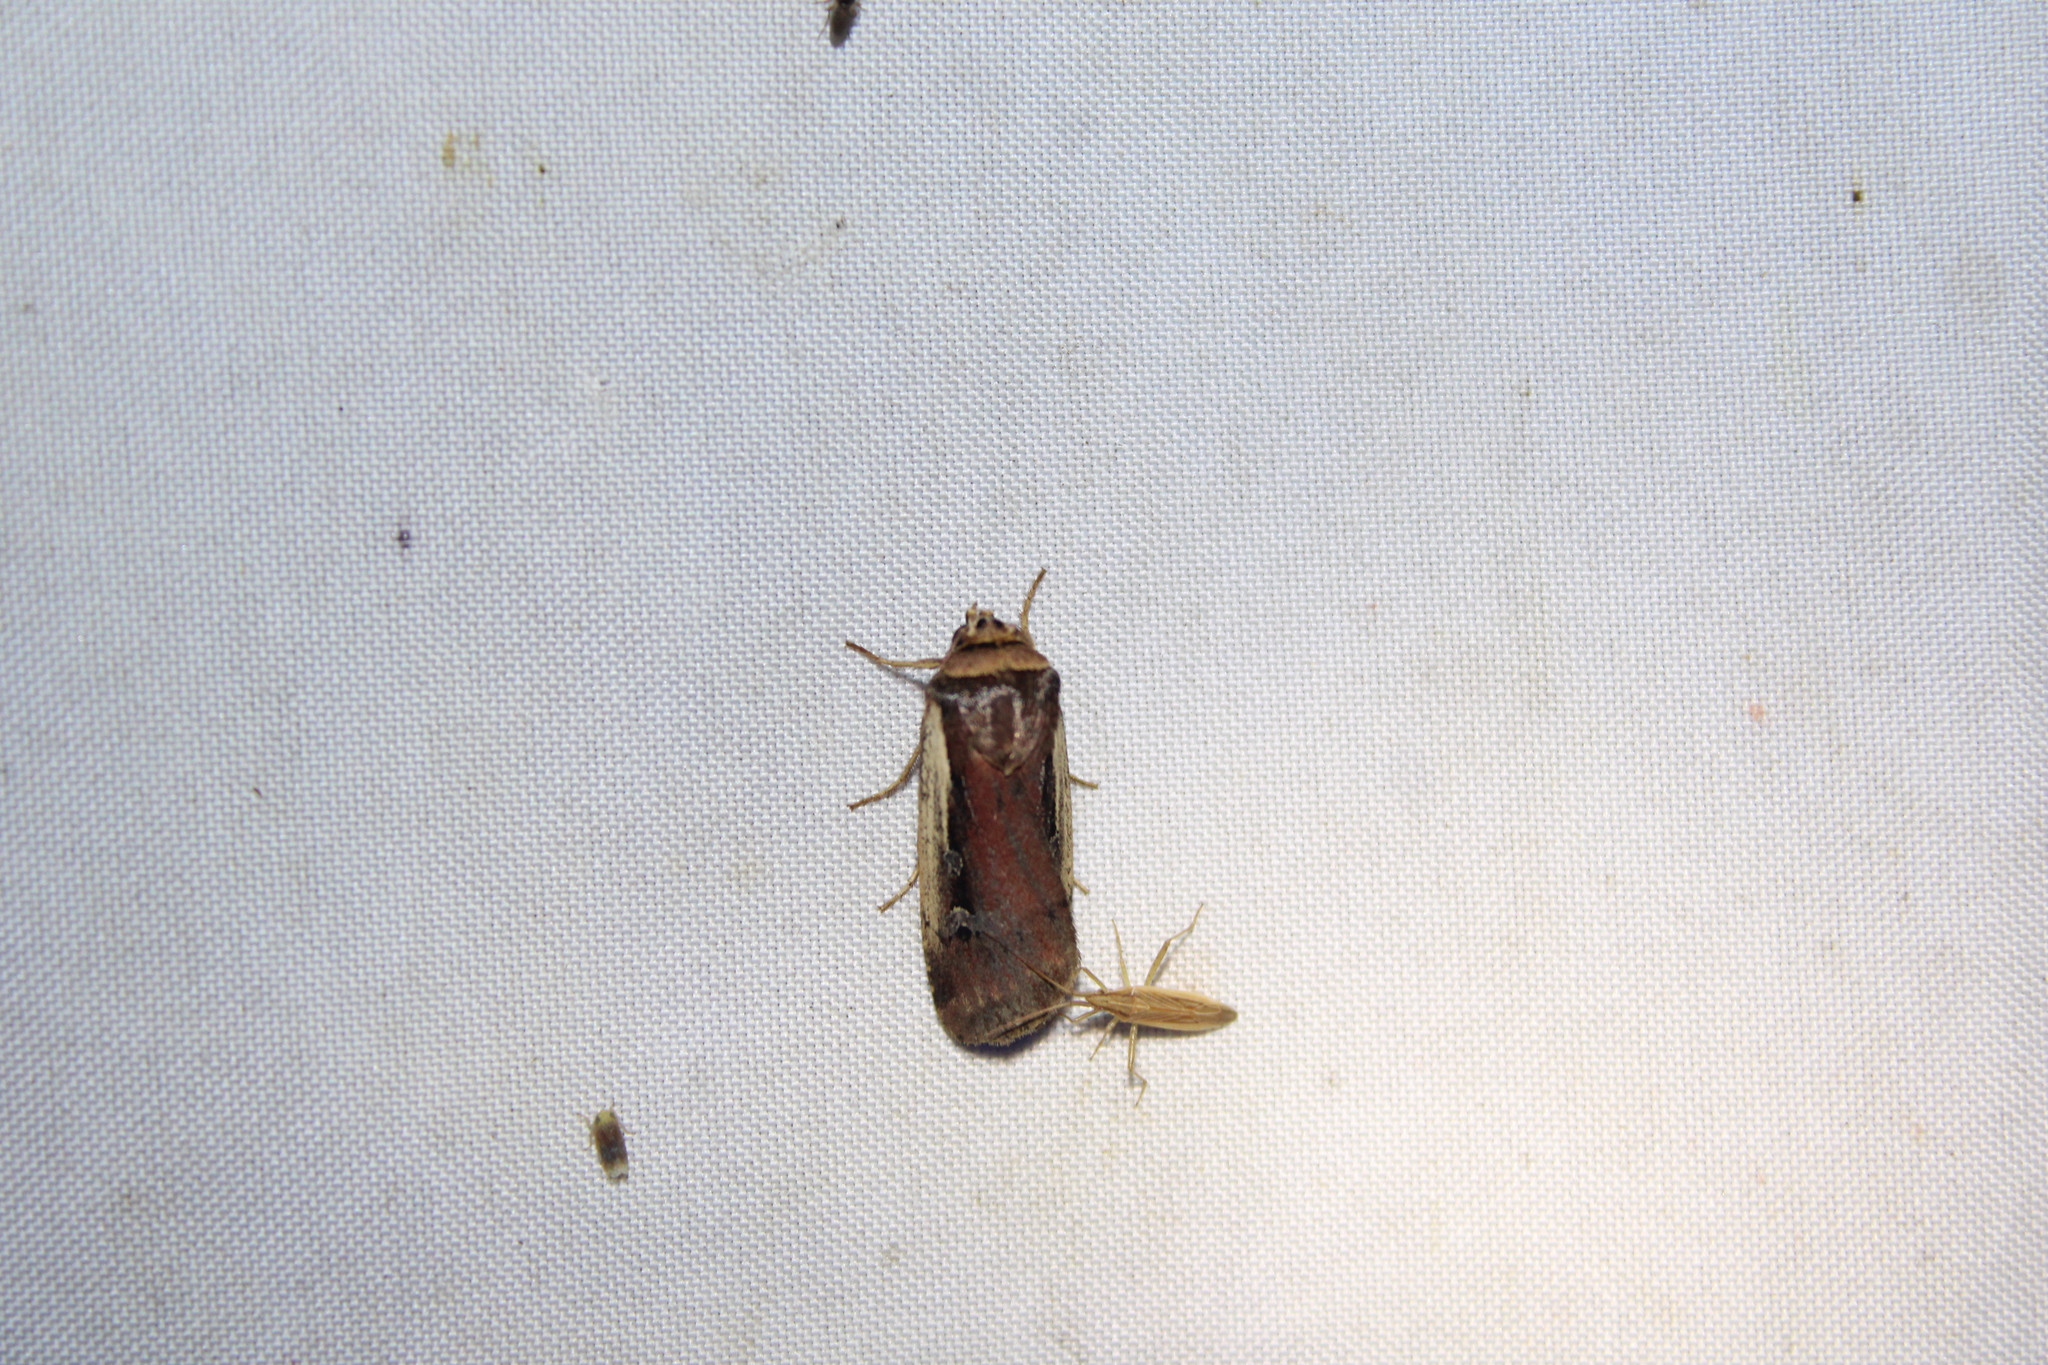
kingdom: Animalia
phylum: Arthropoda
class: Insecta
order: Lepidoptera
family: Noctuidae
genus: Ochropleura
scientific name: Ochropleura implecta
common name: Flame-shouldered dart
